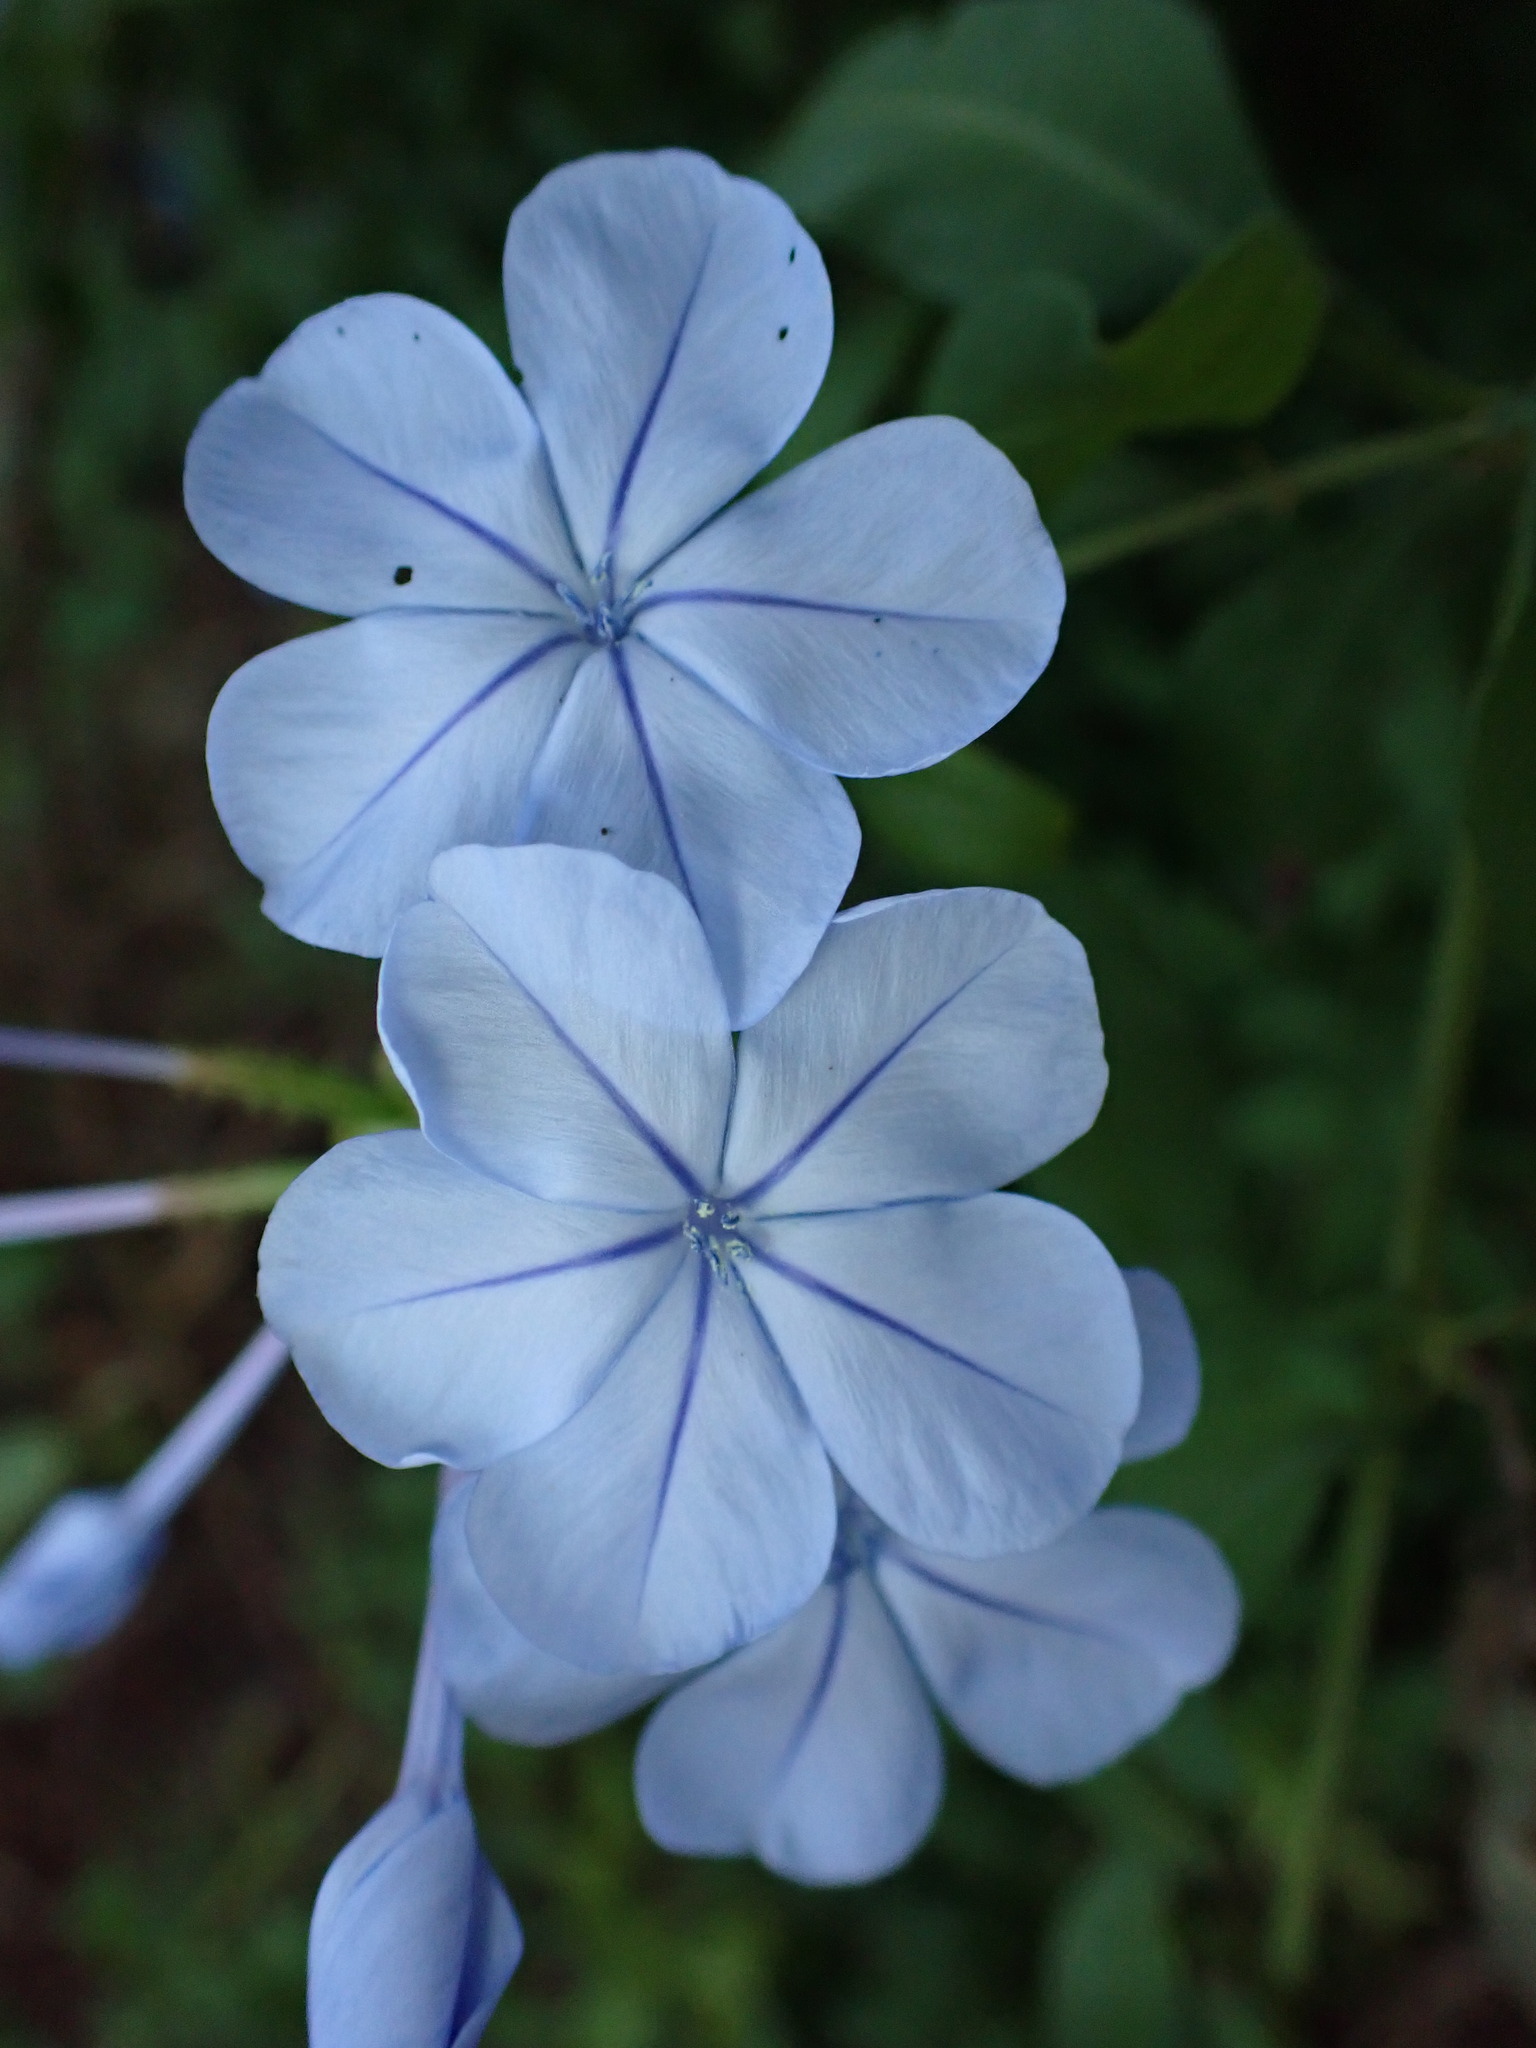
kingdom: Plantae
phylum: Tracheophyta
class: Magnoliopsida
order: Caryophyllales
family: Plumbaginaceae
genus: Plumbago
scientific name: Plumbago auriculata
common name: Cape leadwort
